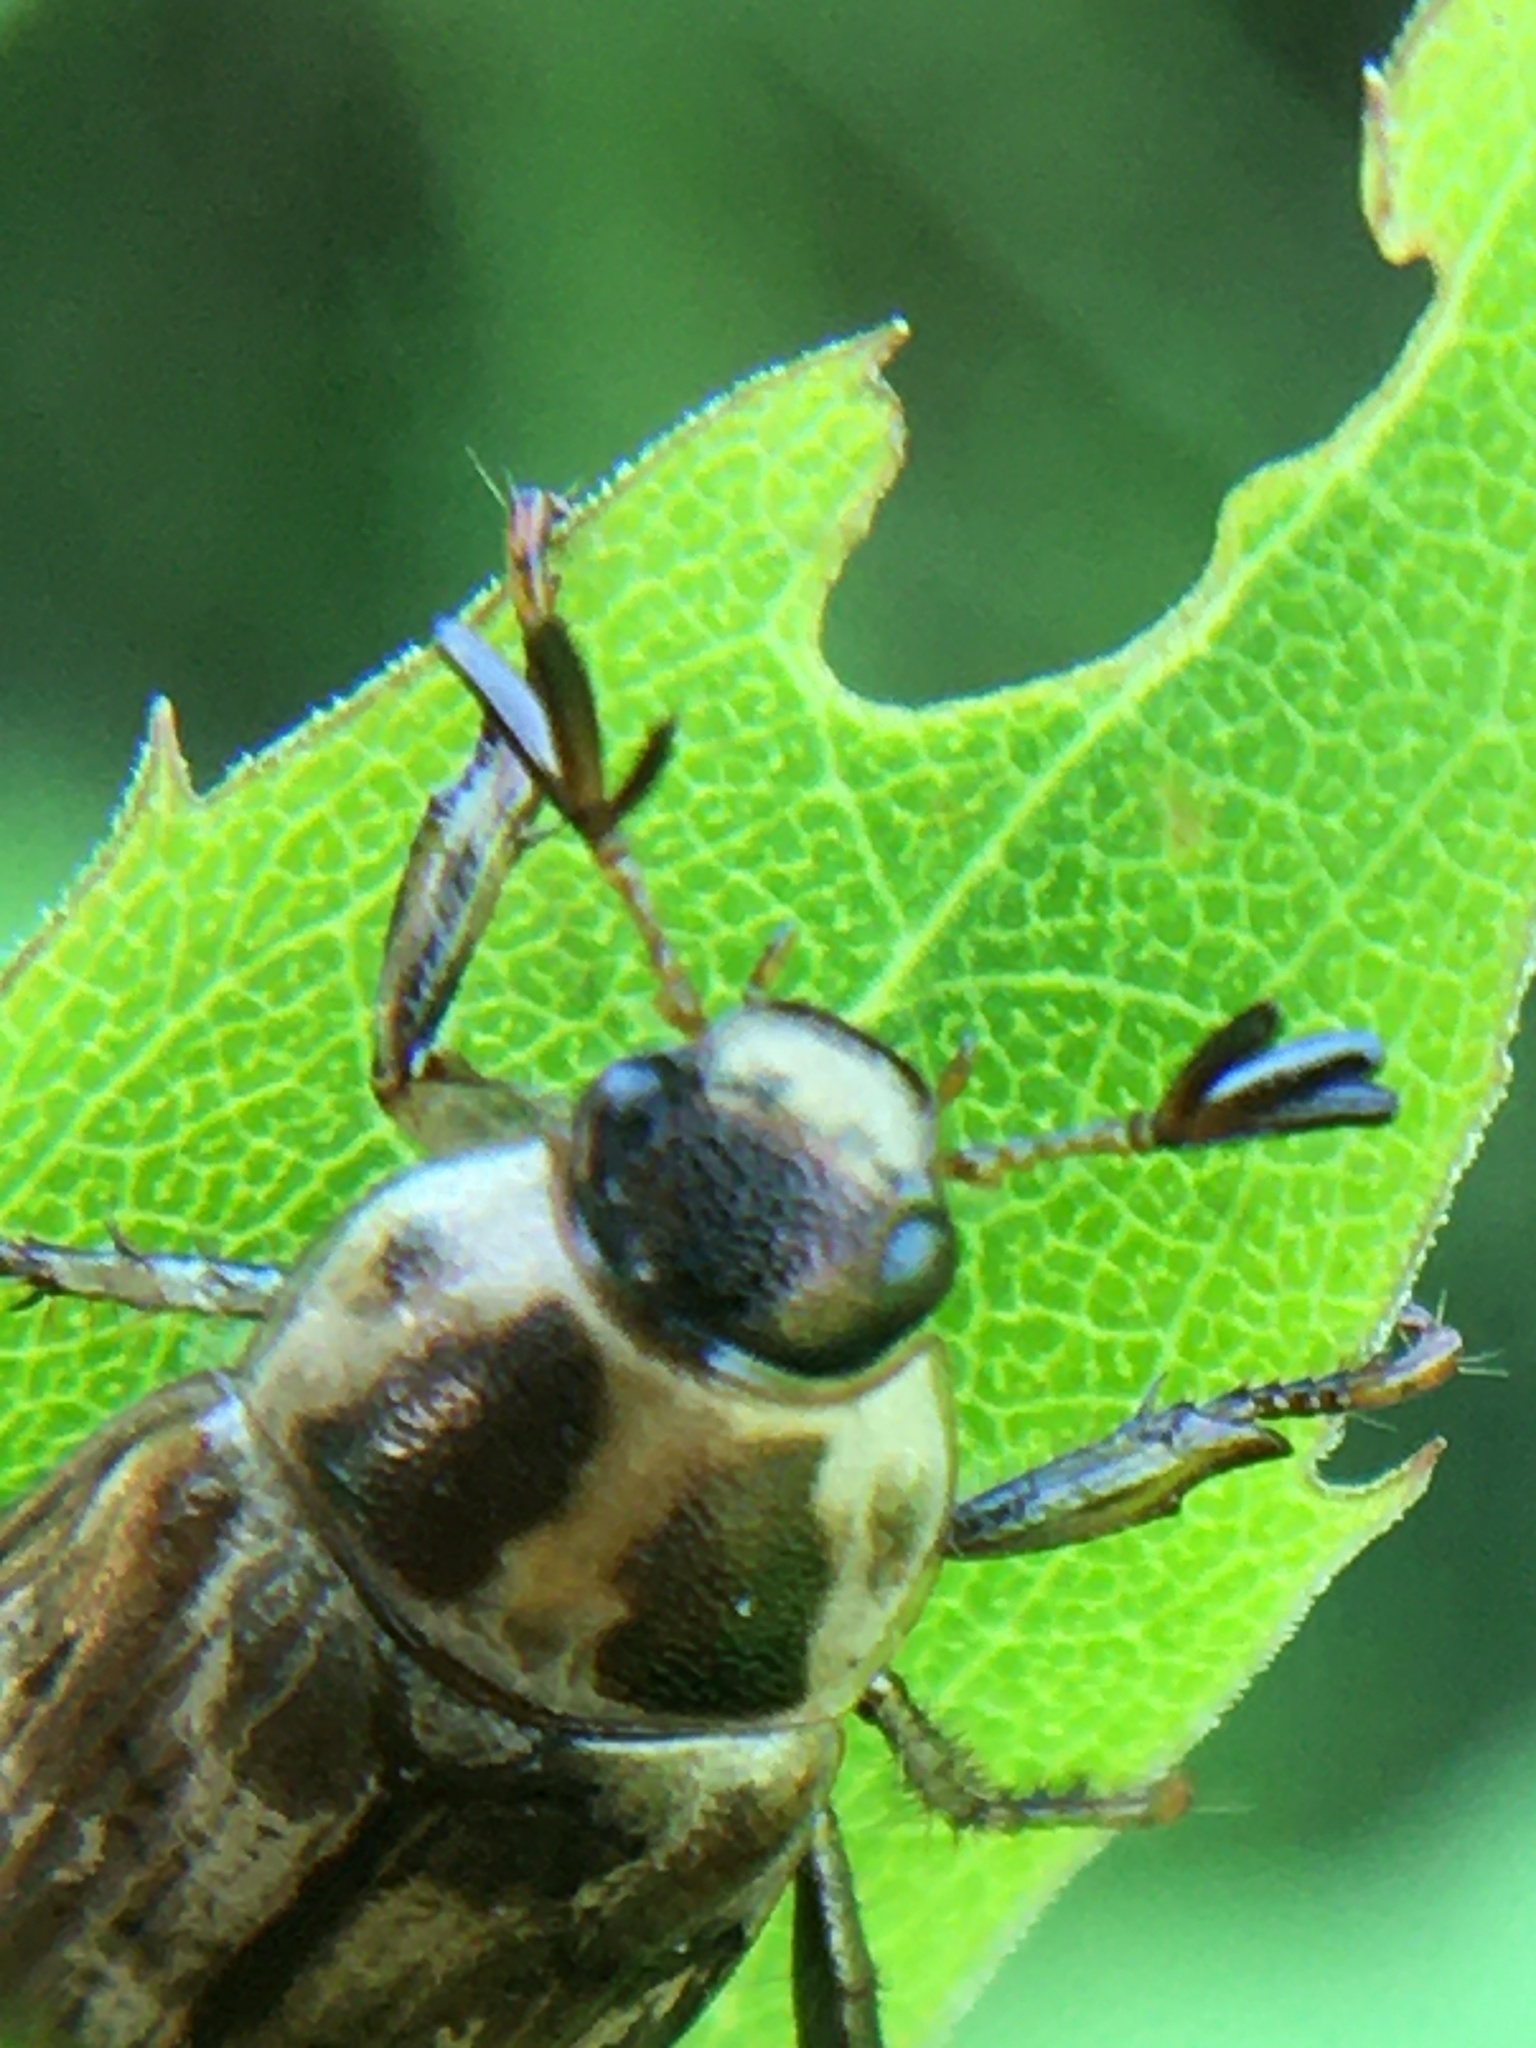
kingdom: Animalia
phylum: Arthropoda
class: Insecta
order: Coleoptera
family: Scarabaeidae
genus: Exomala
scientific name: Exomala orientalis
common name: Oriental beetle
